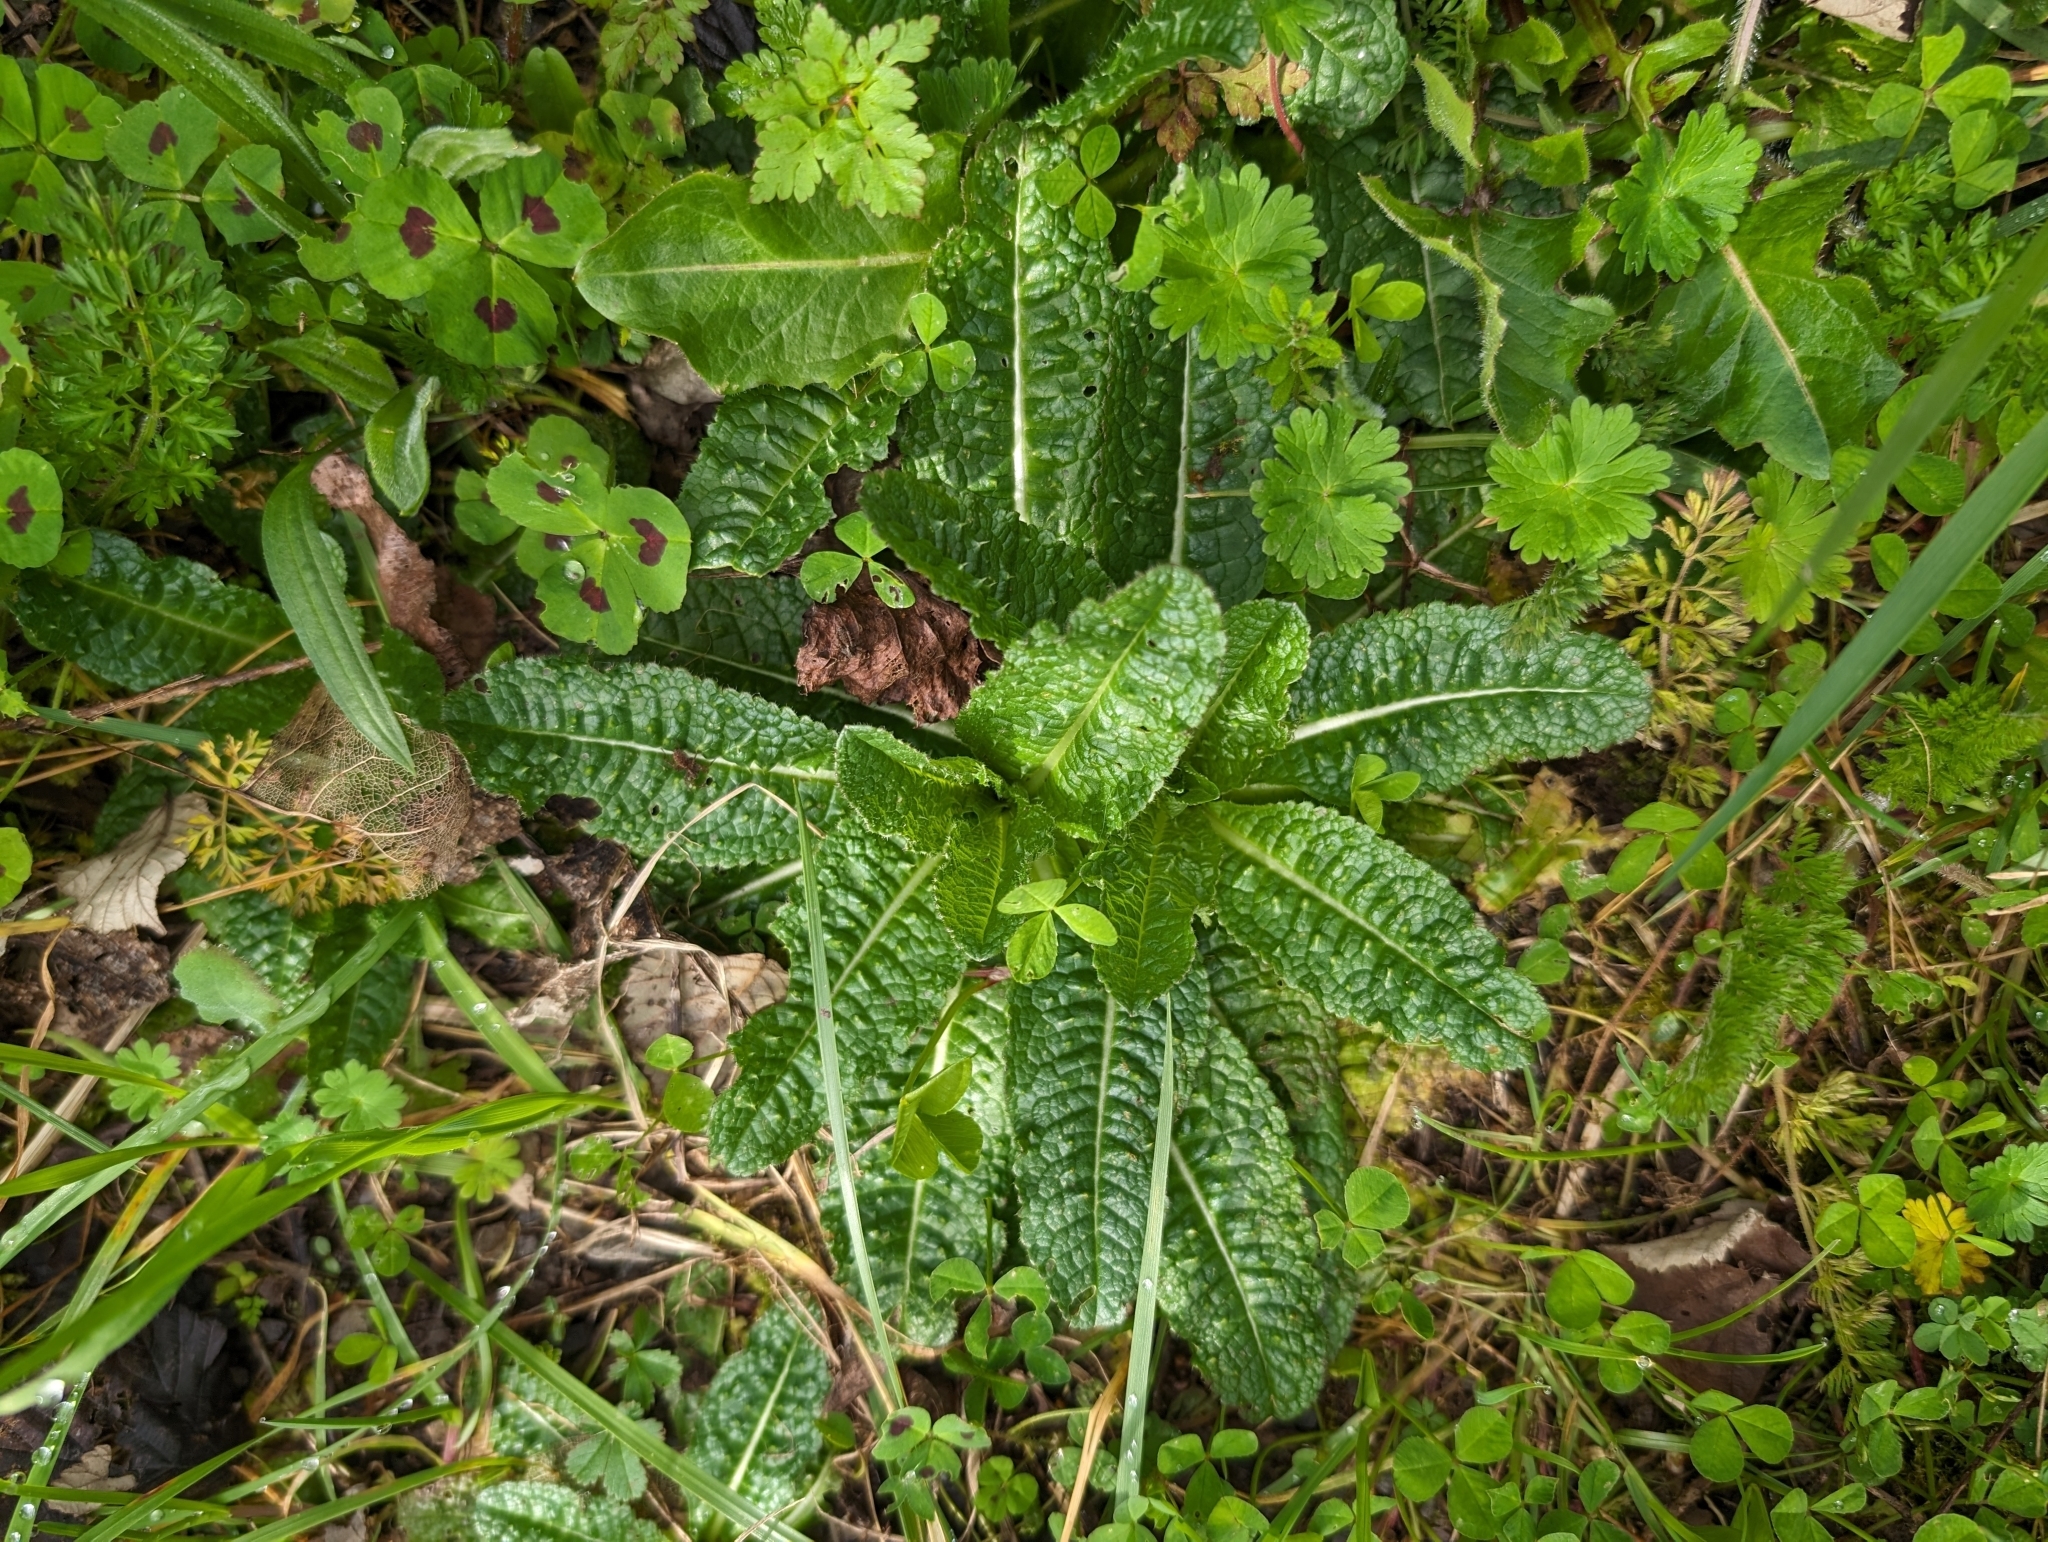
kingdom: Plantae
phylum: Tracheophyta
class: Magnoliopsida
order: Dipsacales
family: Caprifoliaceae
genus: Dipsacus
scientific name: Dipsacus fullonum
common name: Teasel
